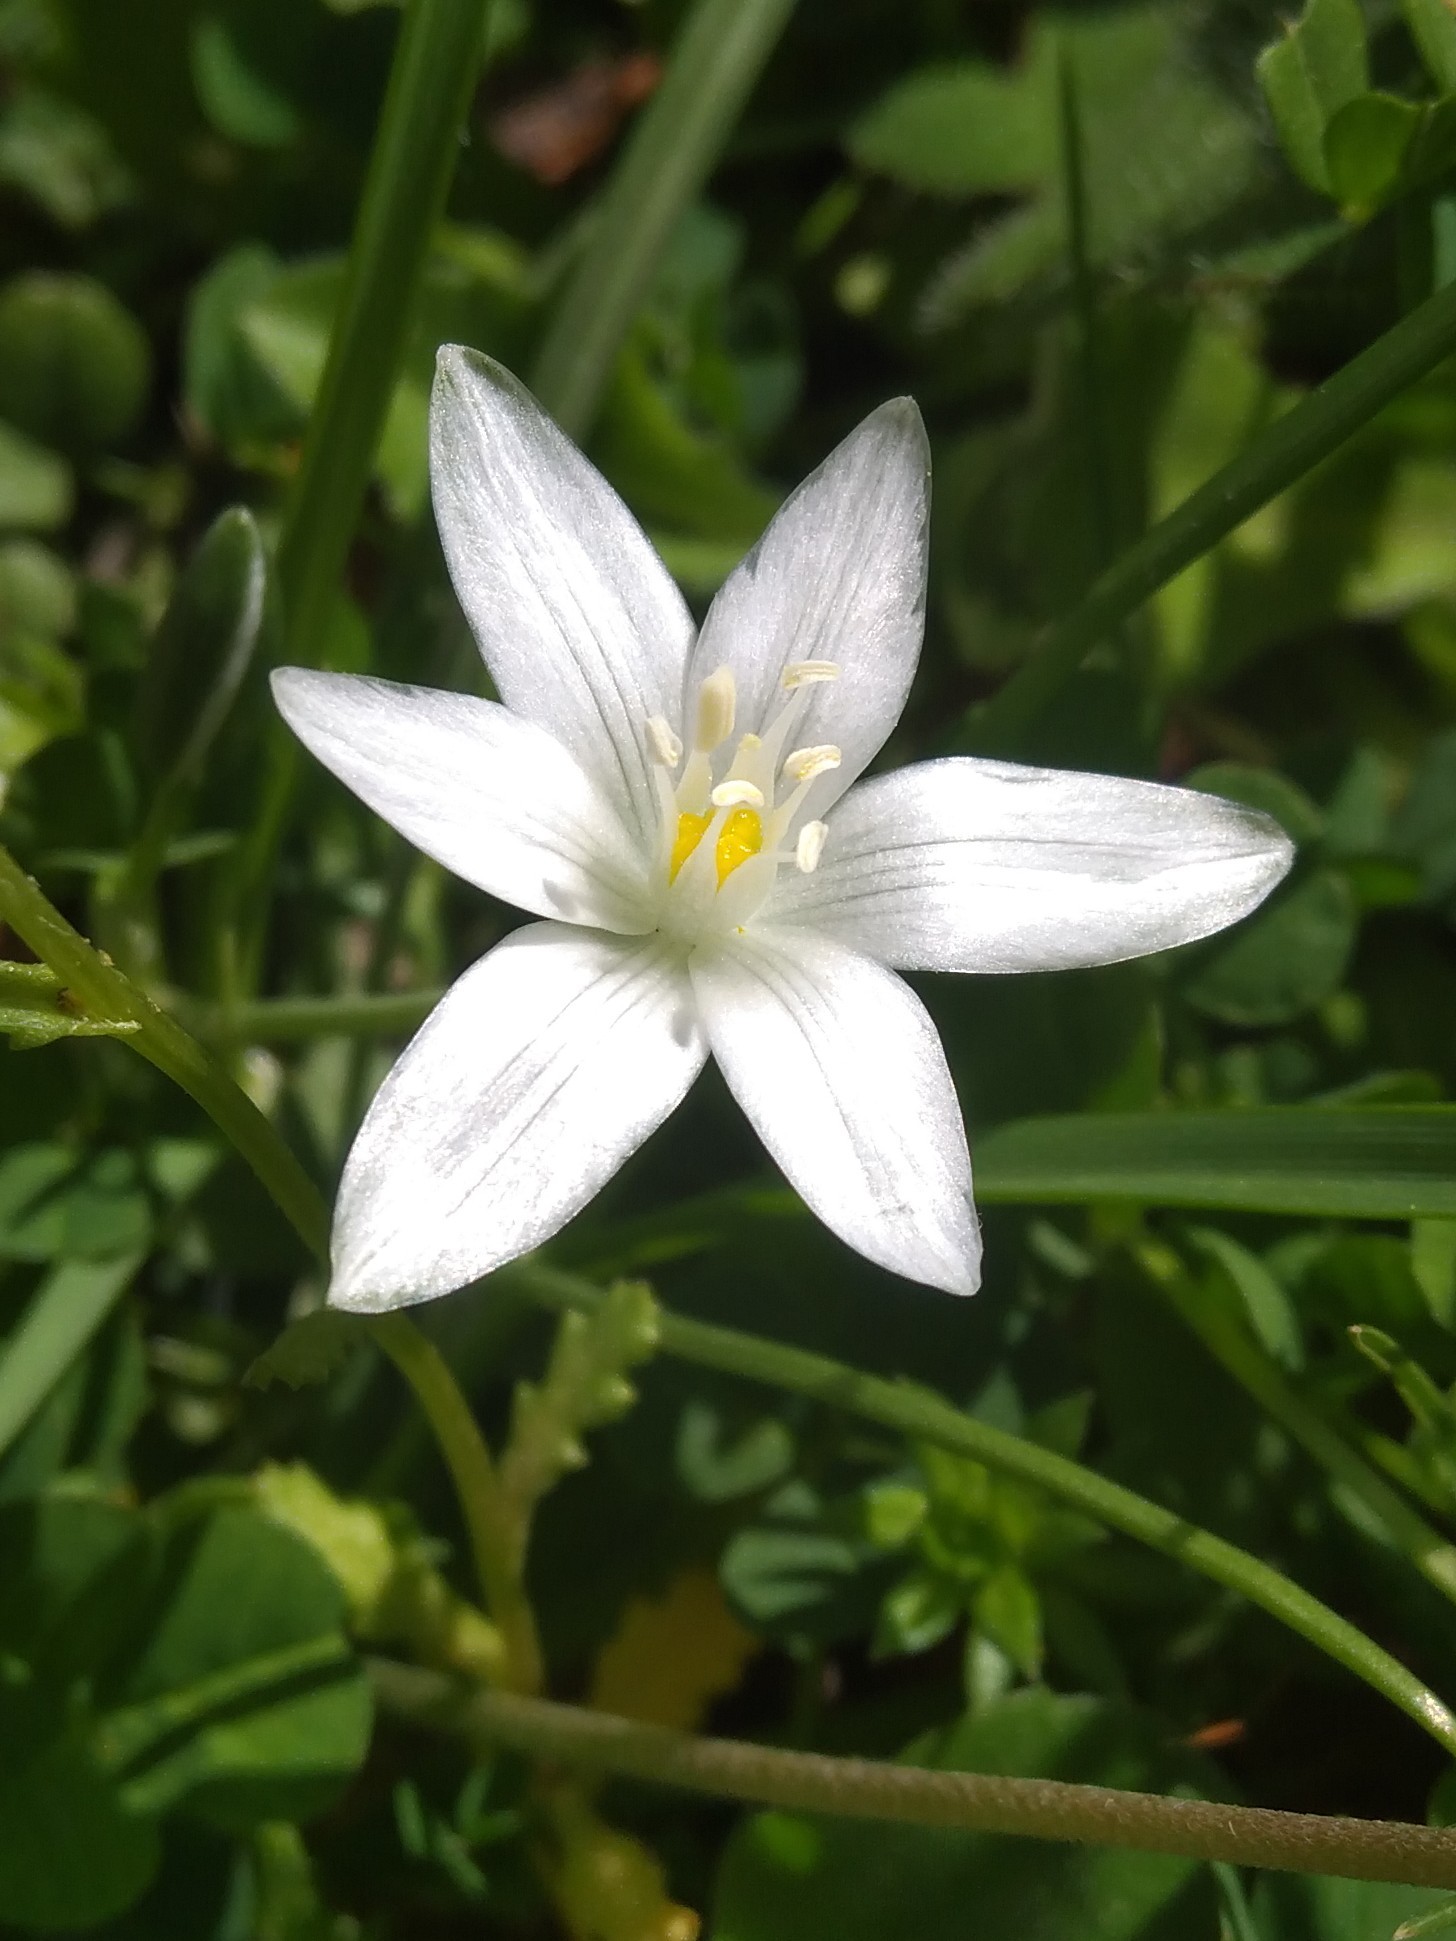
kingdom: Plantae
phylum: Tracheophyta
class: Liliopsida
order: Asparagales
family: Asparagaceae
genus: Ornithogalum
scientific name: Ornithogalum umbellatum
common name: Garden star-of-bethlehem
